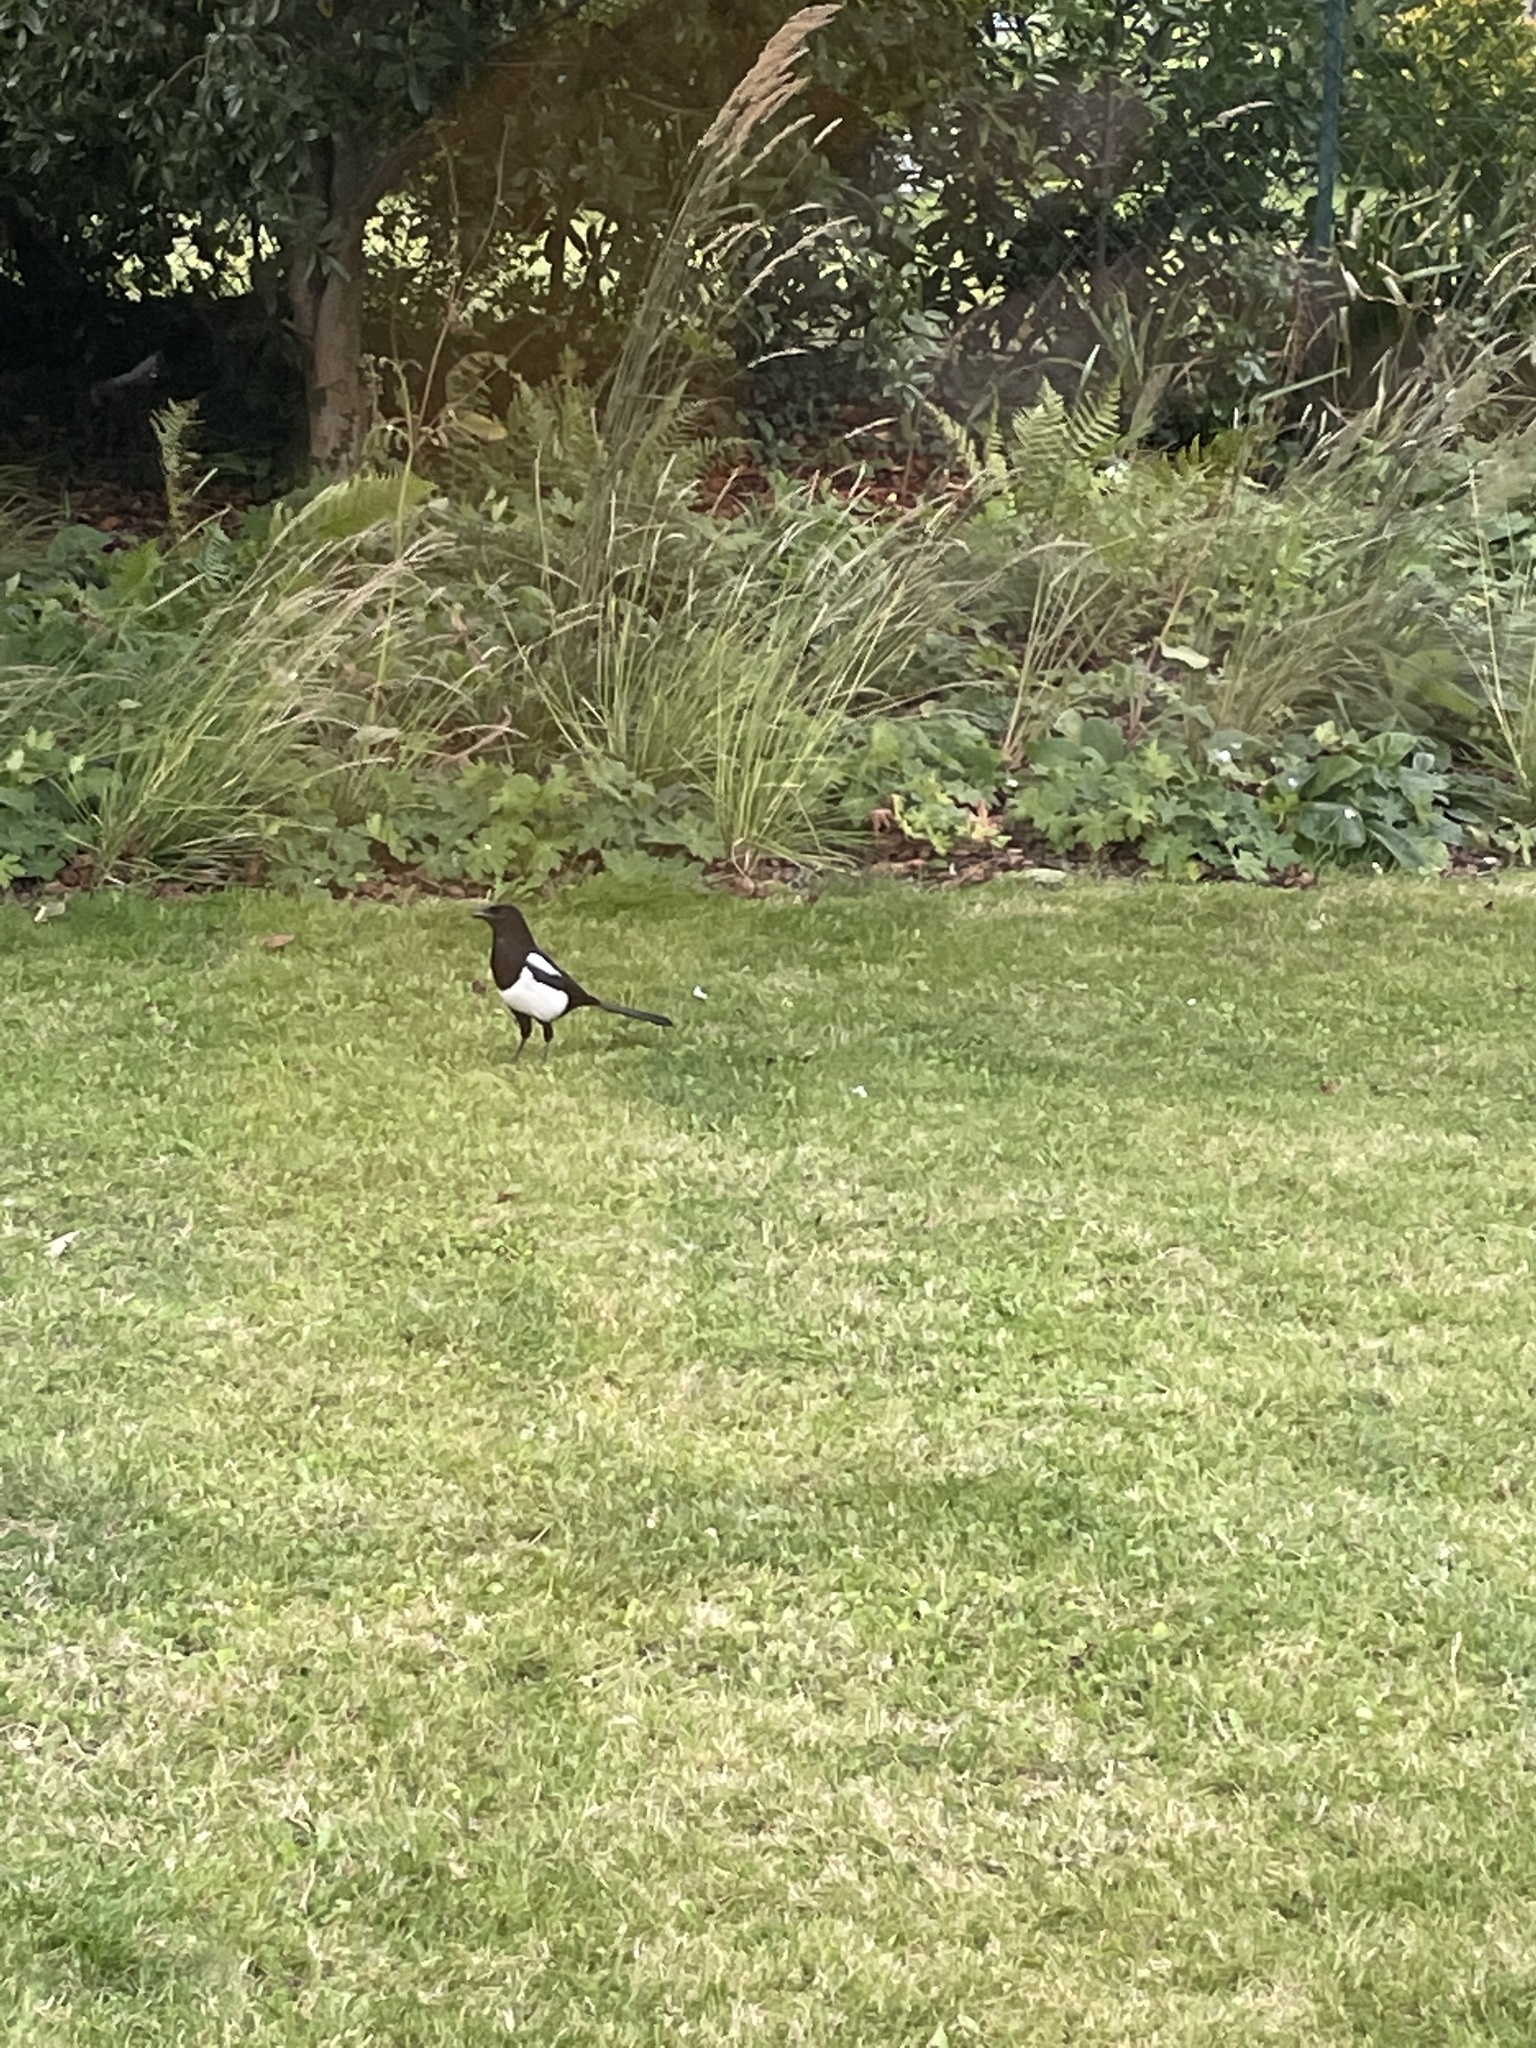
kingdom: Animalia
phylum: Chordata
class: Aves
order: Passeriformes
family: Corvidae
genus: Pica
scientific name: Pica pica
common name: Eurasian magpie
